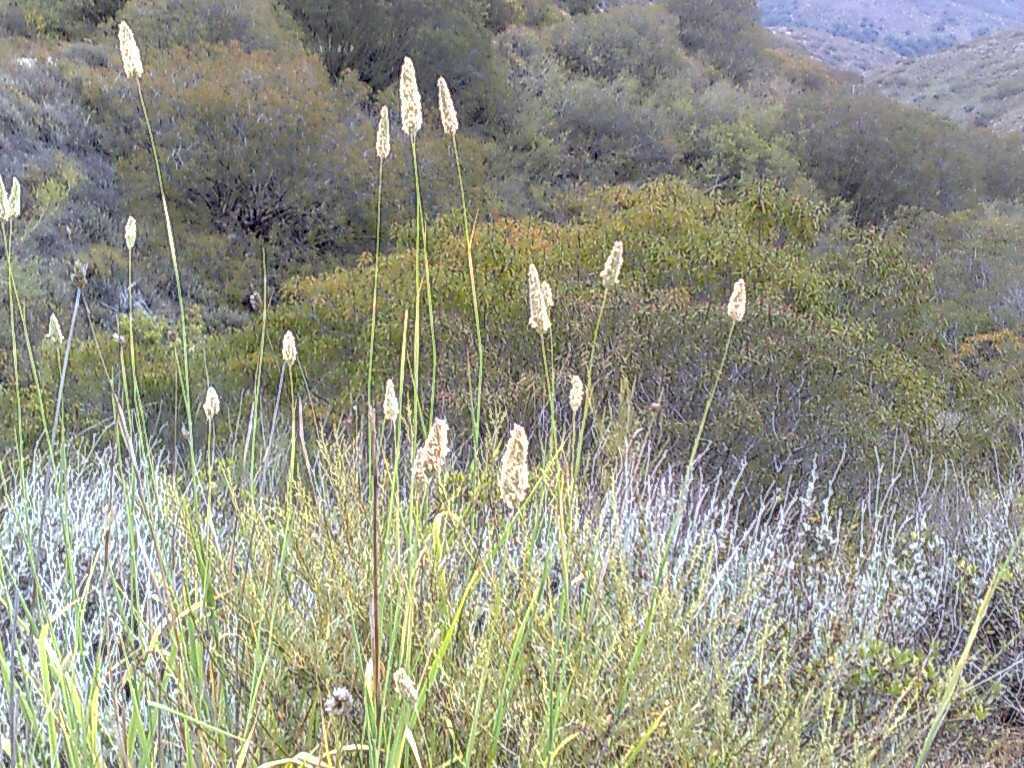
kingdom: Plantae
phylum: Tracheophyta
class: Magnoliopsida
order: Asterales
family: Asteraceae
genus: Artemisia
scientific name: Artemisia californica
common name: California sagebrush
